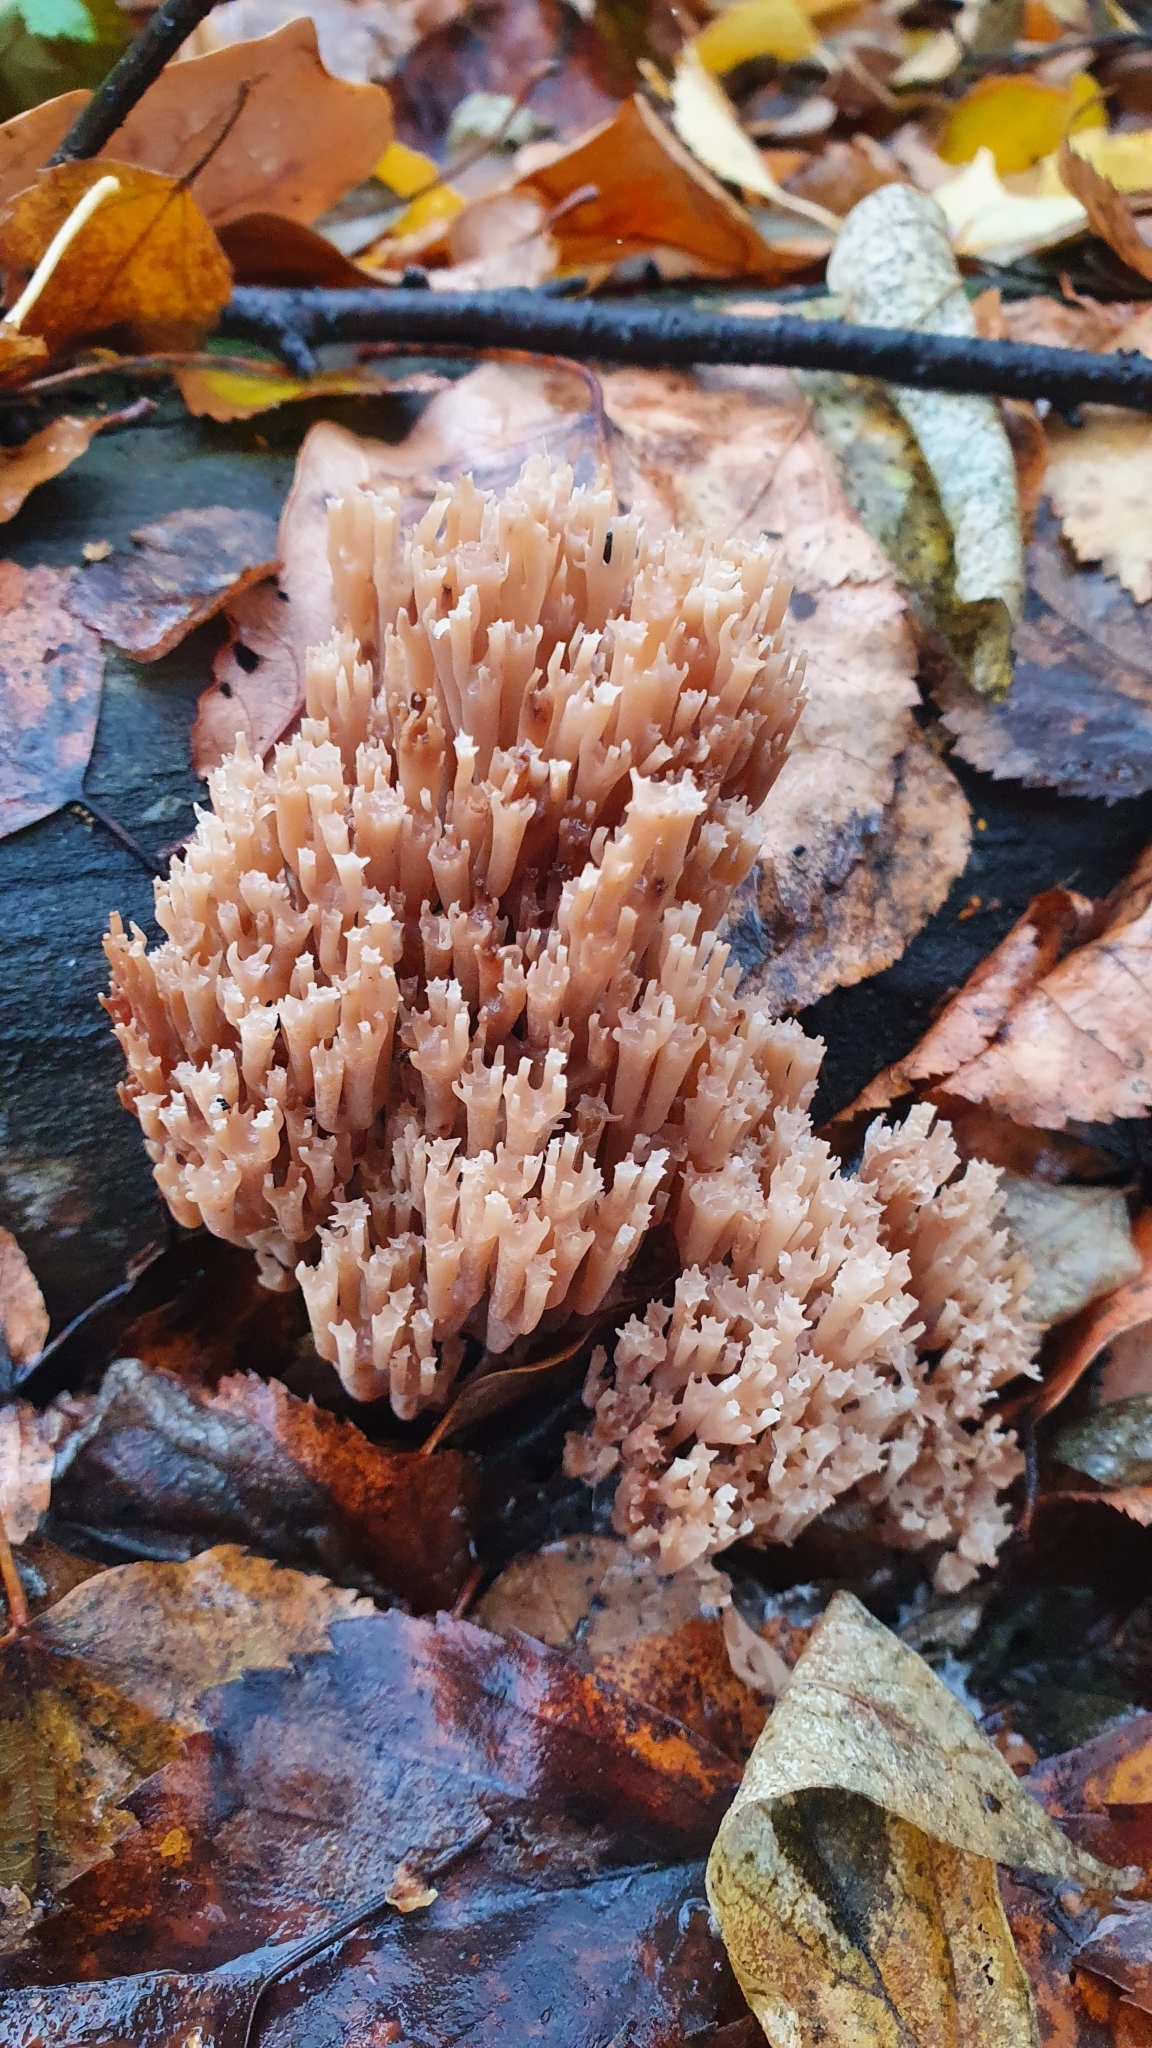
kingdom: Fungi
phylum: Basidiomycota
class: Agaricomycetes
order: Russulales
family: Auriscalpiaceae
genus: Artomyces
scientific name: Artomyces pyxidatus
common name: Crown-tipped coral fungus
